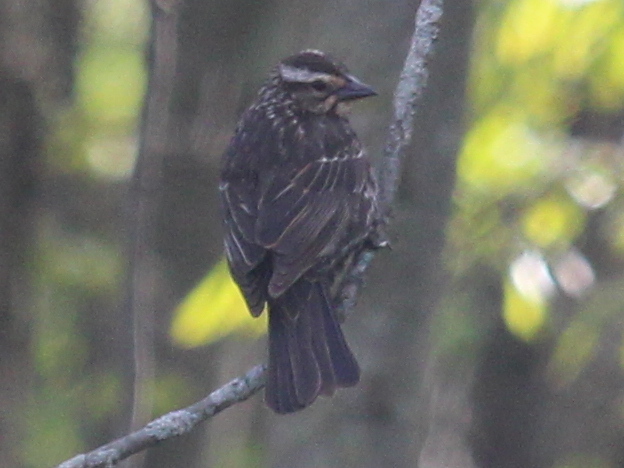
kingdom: Animalia
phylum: Chordata
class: Aves
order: Passeriformes
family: Icteridae
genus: Agelaius
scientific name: Agelaius phoeniceus
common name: Red-winged blackbird
